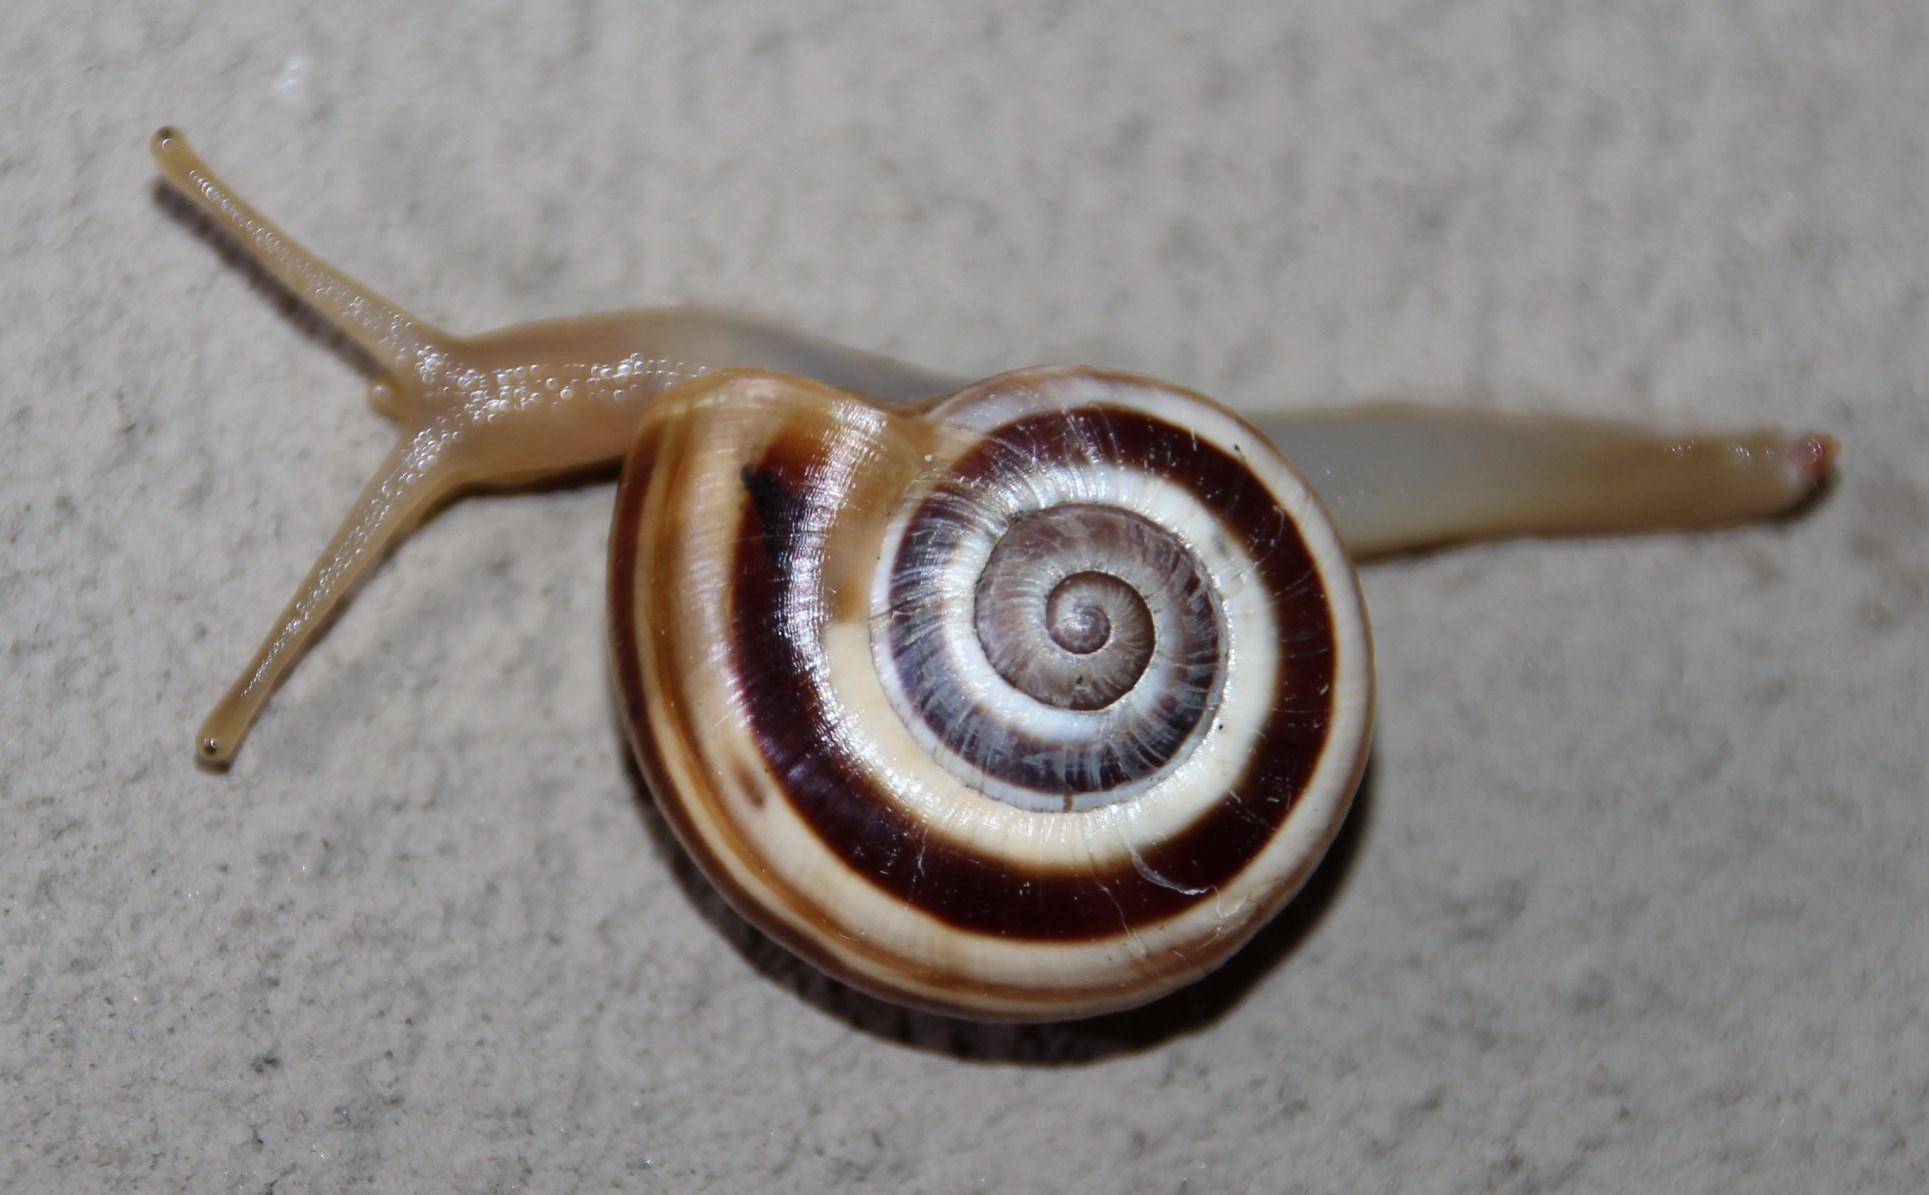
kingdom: Animalia
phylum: Mollusca
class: Gastropoda
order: Stylommatophora
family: Charopidae
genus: Phortion
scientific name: Phortion menkeanum
